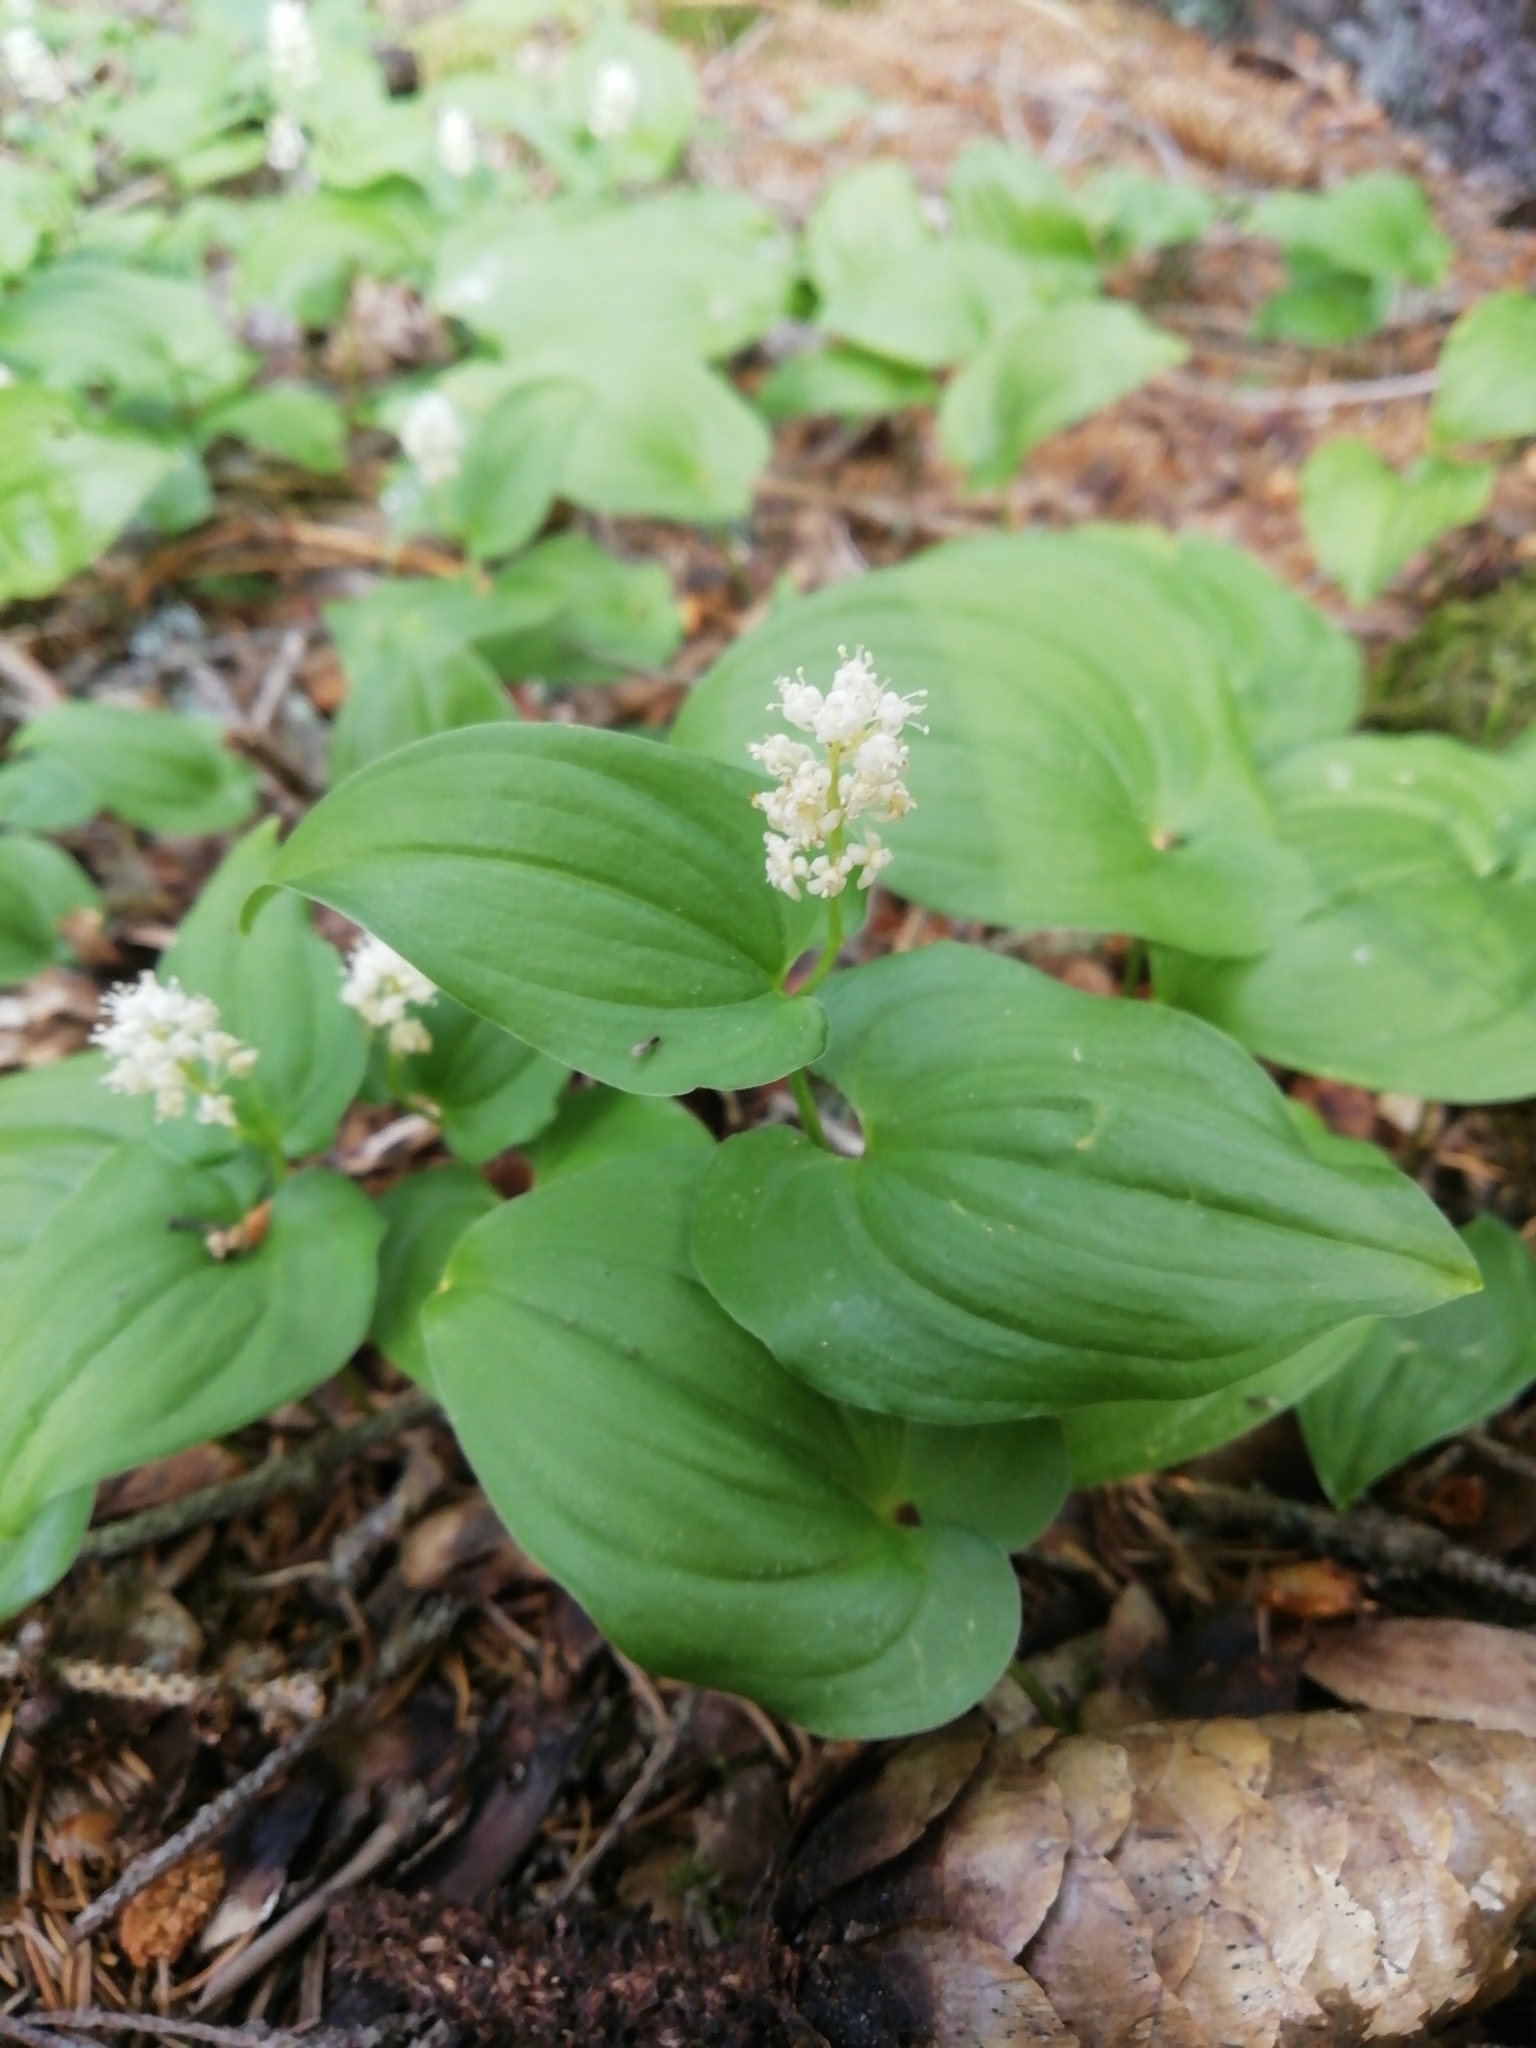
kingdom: Plantae
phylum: Tracheophyta
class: Liliopsida
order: Asparagales
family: Asparagaceae
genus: Maianthemum
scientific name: Maianthemum bifolium
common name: May lily
